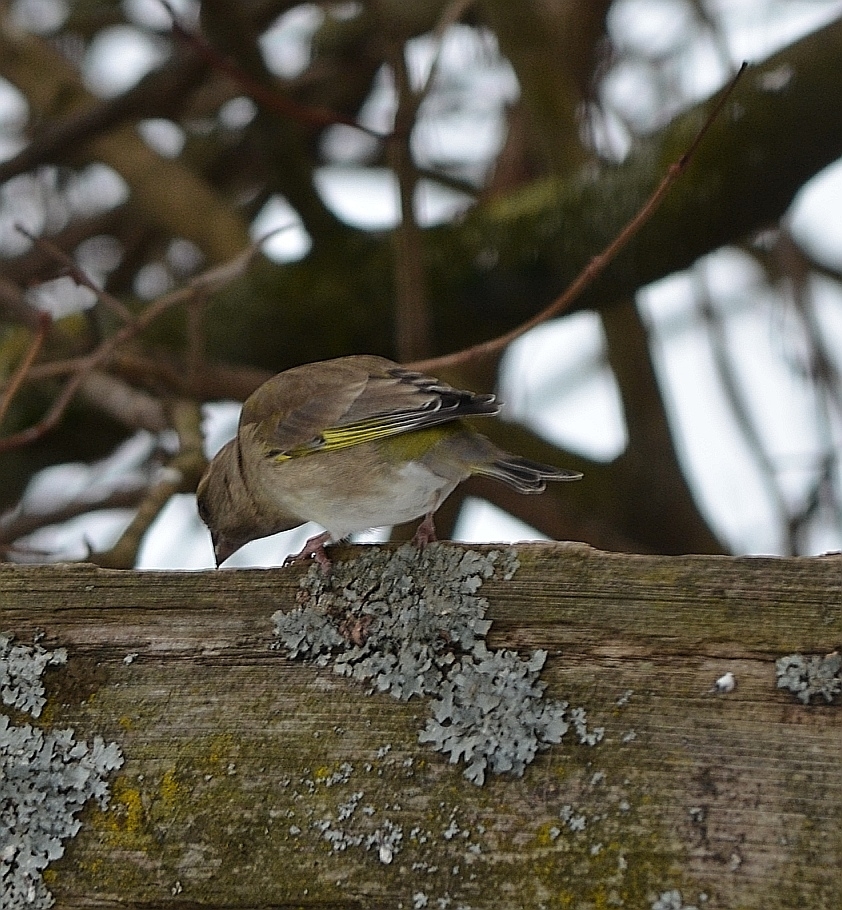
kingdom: Plantae
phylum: Tracheophyta
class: Liliopsida
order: Poales
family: Poaceae
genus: Chloris
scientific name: Chloris chloris
